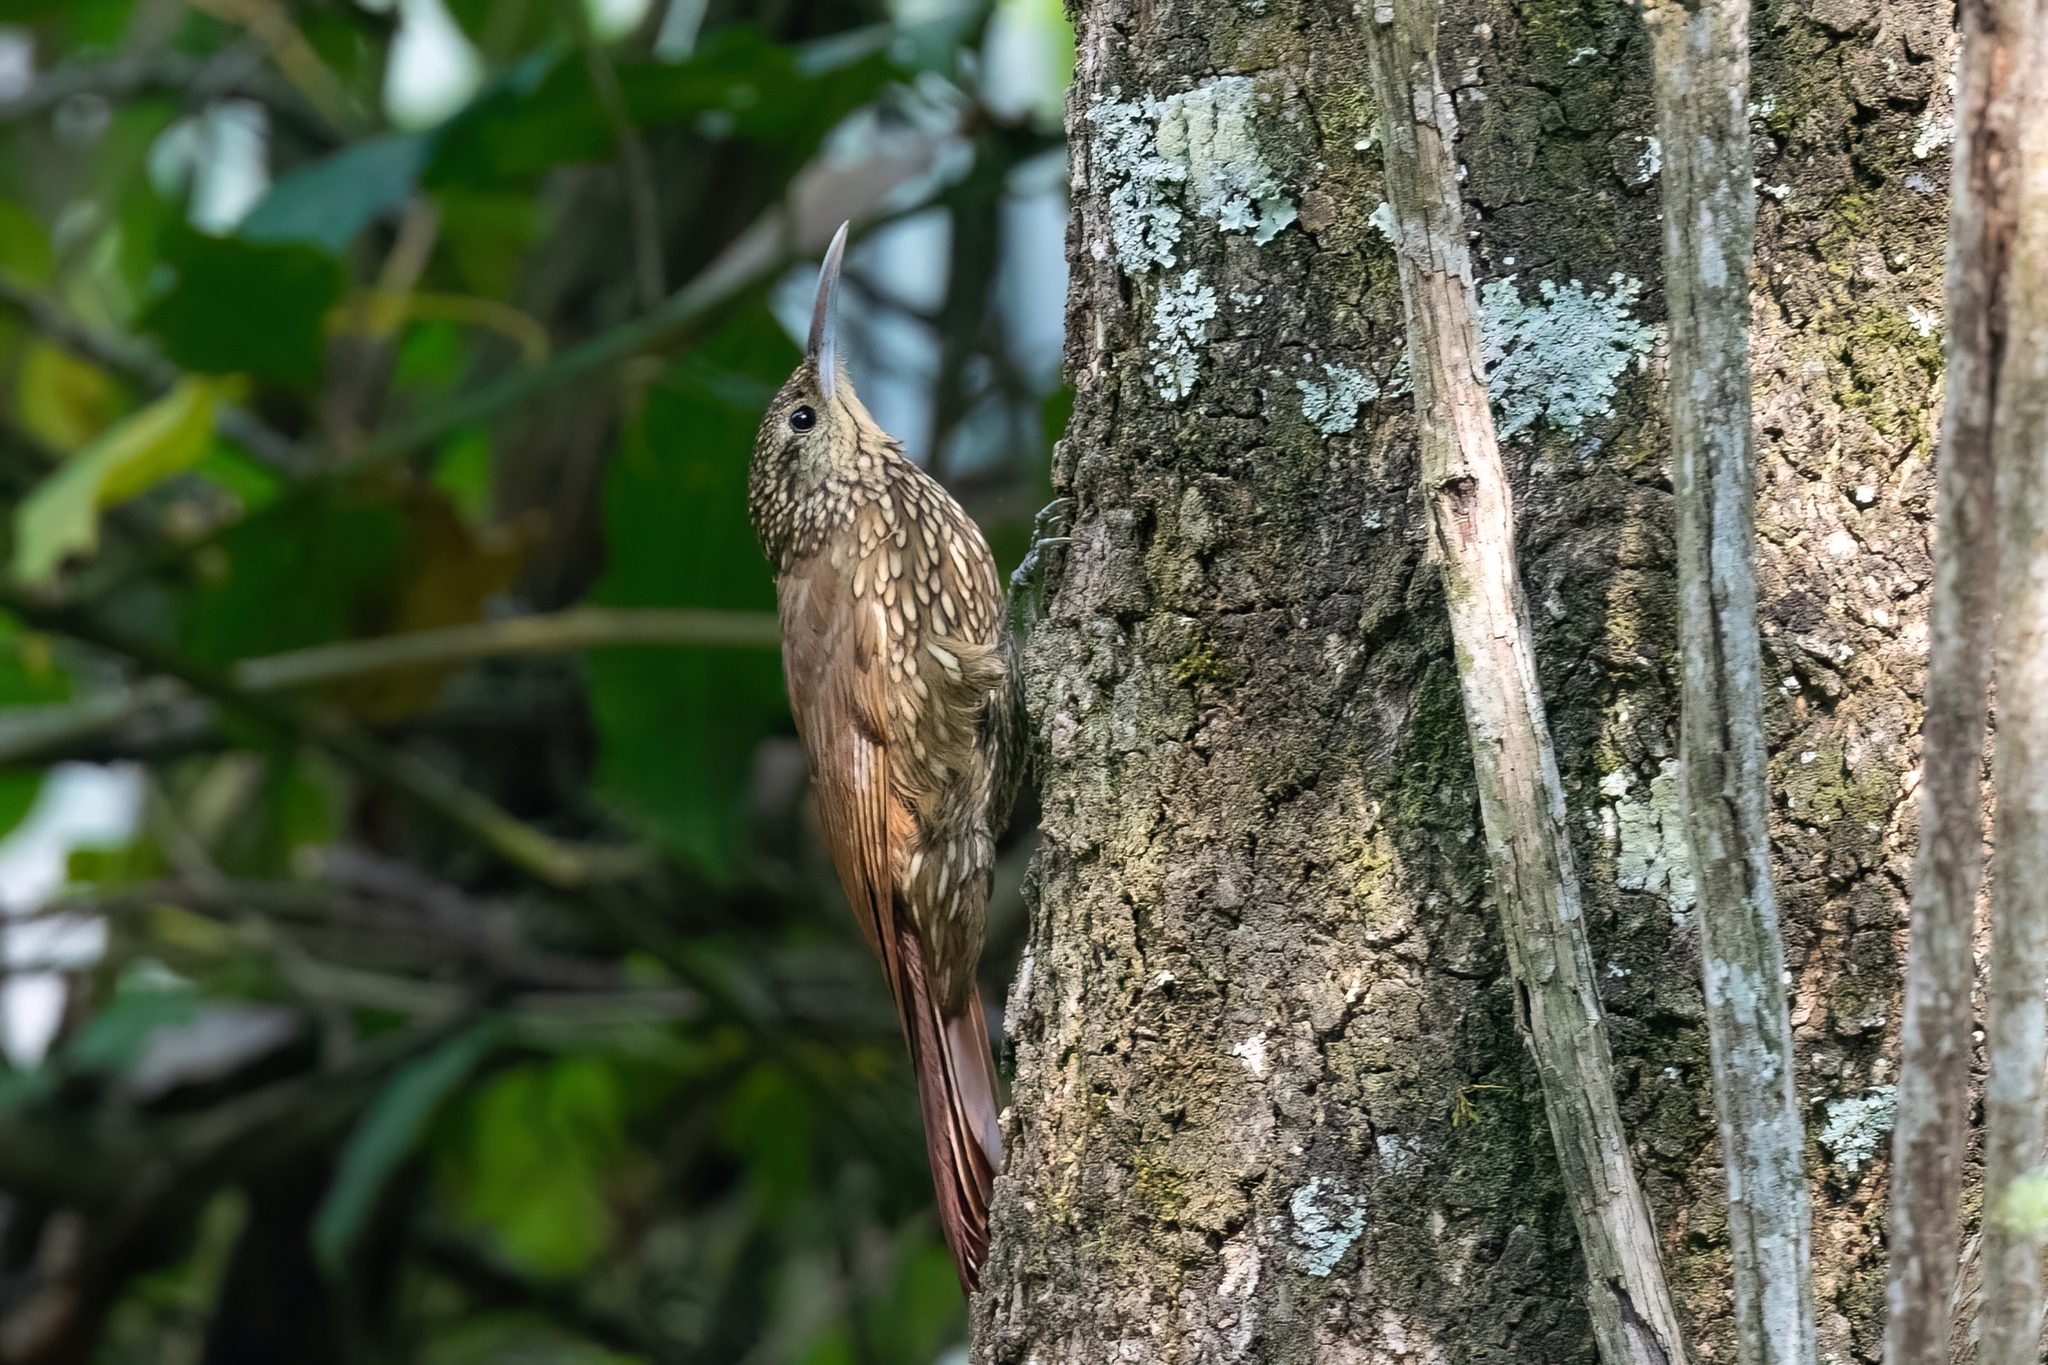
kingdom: Animalia
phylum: Chordata
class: Aves
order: Passeriformes
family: Furnariidae
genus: Lepidocolaptes
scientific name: Lepidocolaptes affinis
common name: Spot-crowned woodcreeper
